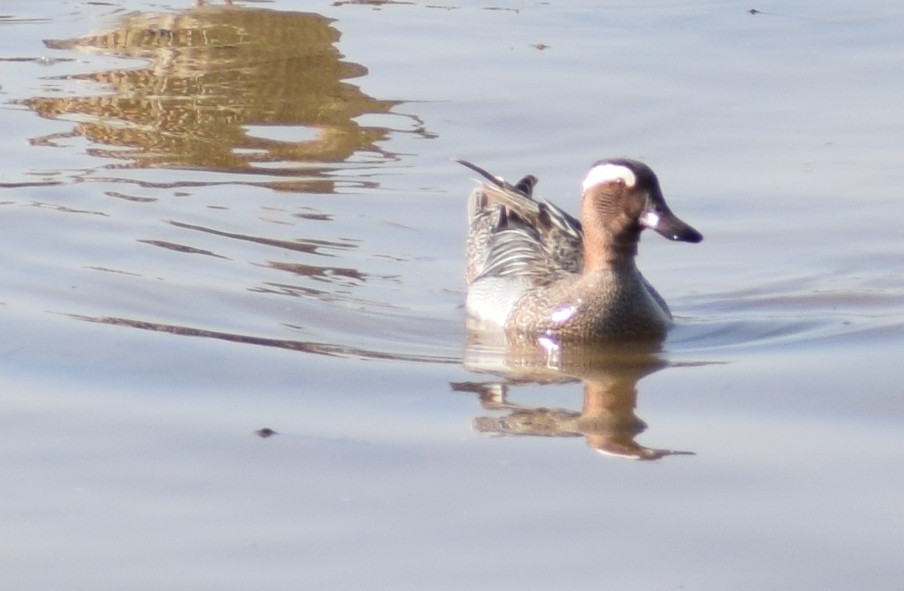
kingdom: Animalia
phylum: Chordata
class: Aves
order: Anseriformes
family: Anatidae
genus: Spatula
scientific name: Spatula querquedula
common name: Garganey
